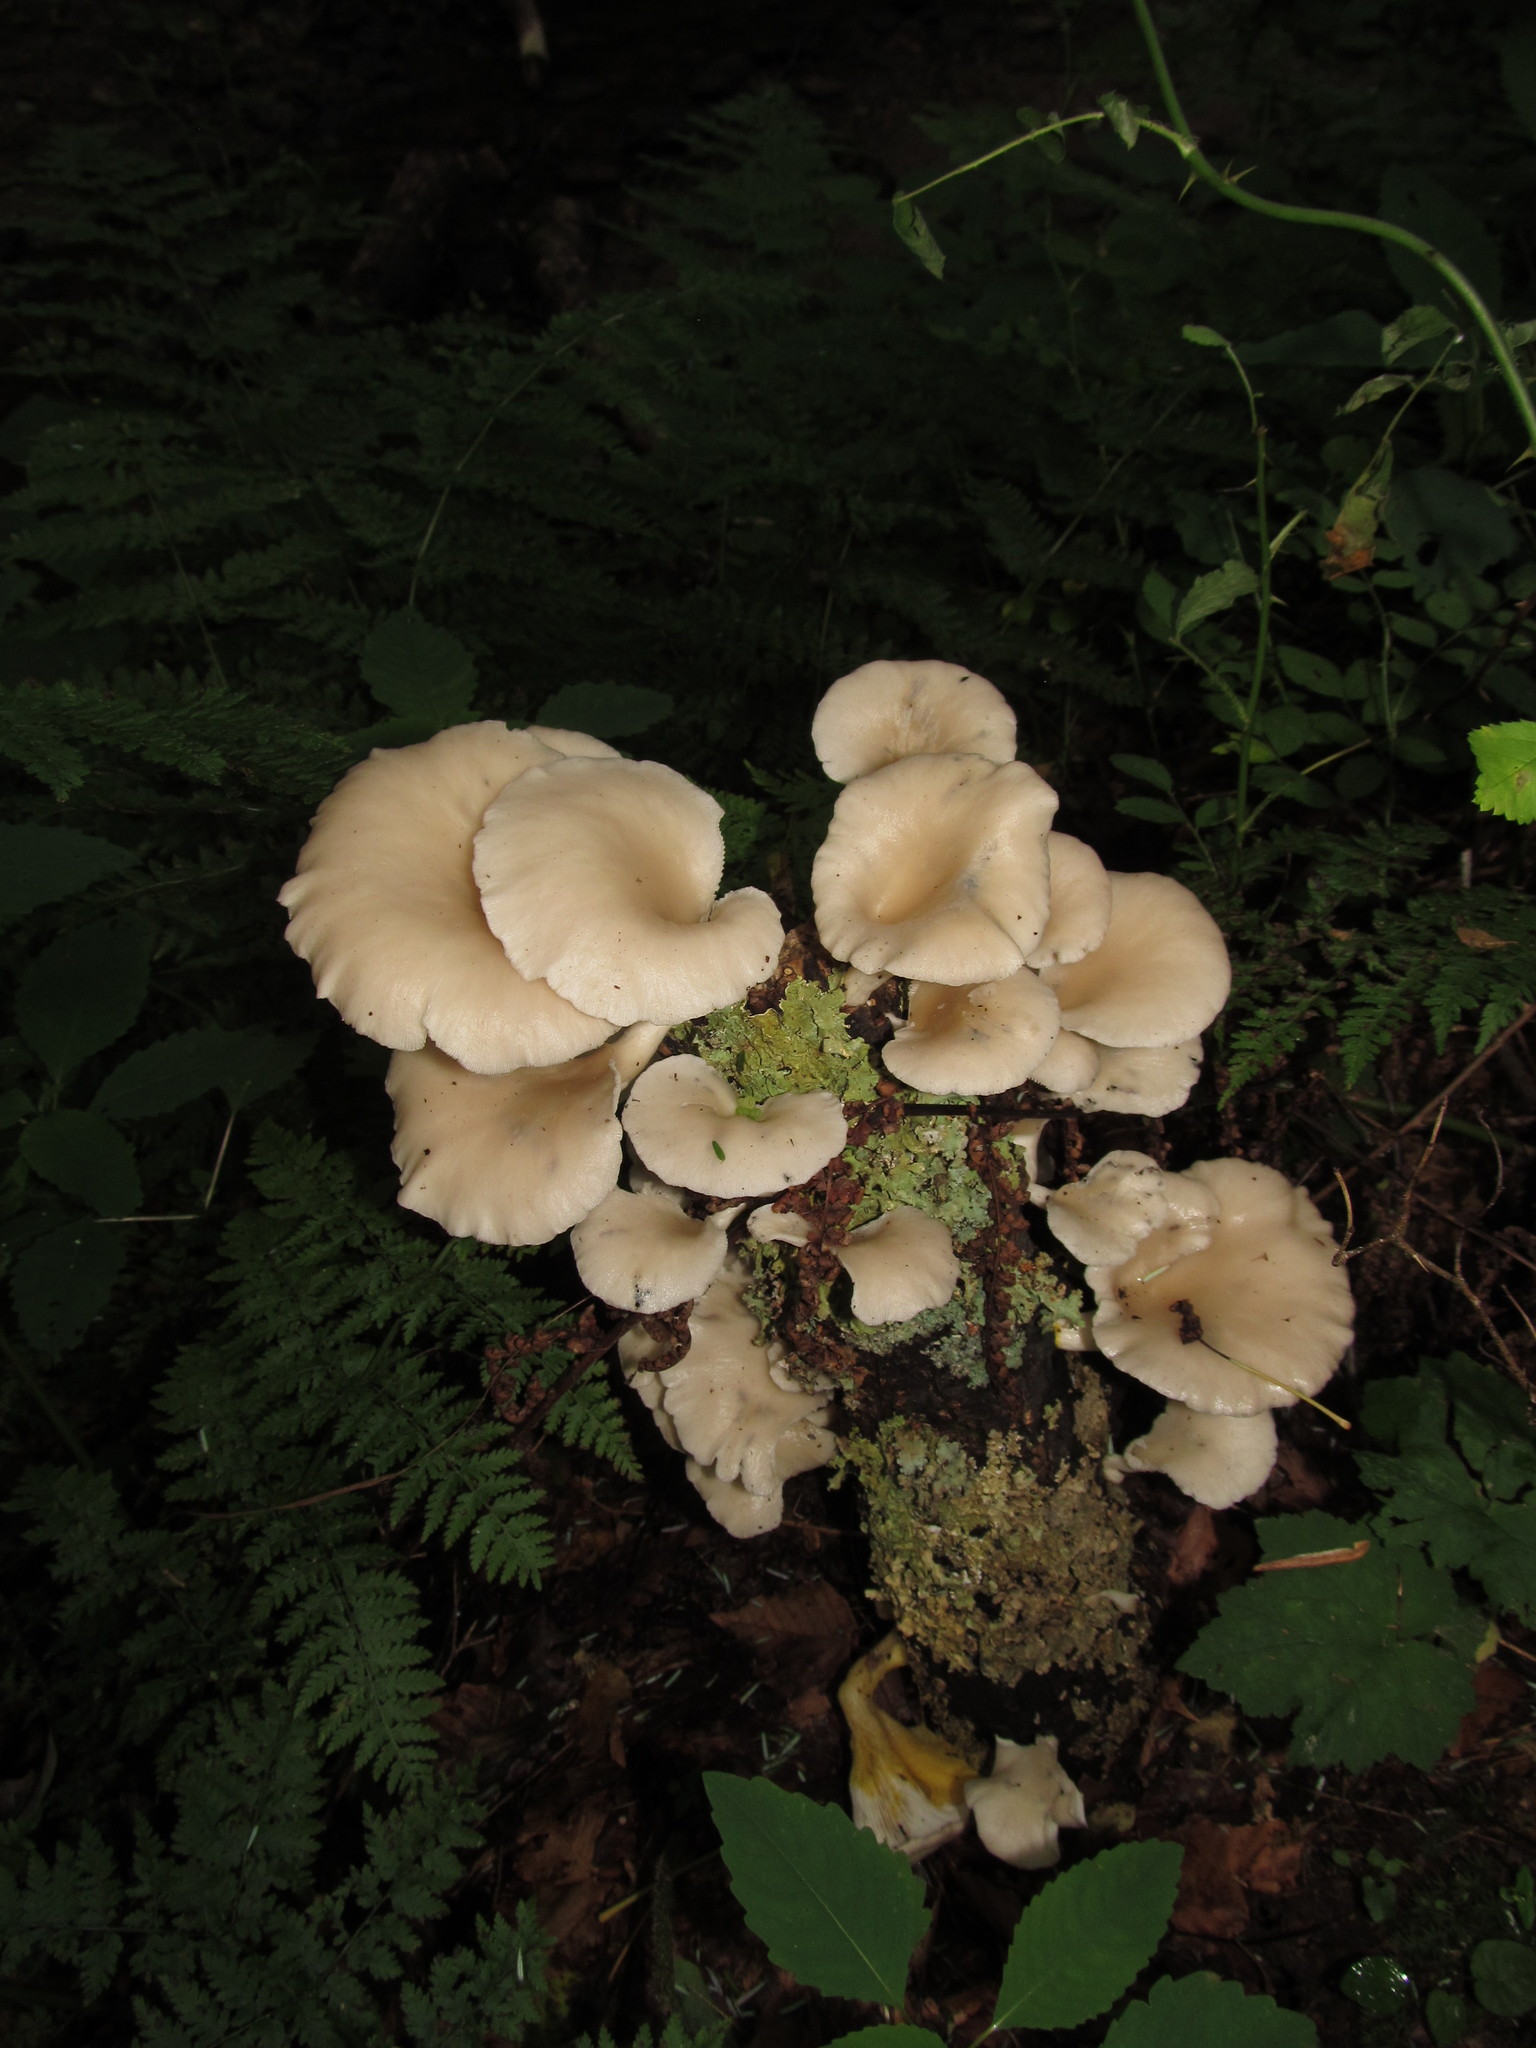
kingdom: Fungi
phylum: Basidiomycota
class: Agaricomycetes
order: Agaricales
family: Pleurotaceae
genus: Pleurotus
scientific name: Pleurotus pulmonarius
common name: Pale oyster
